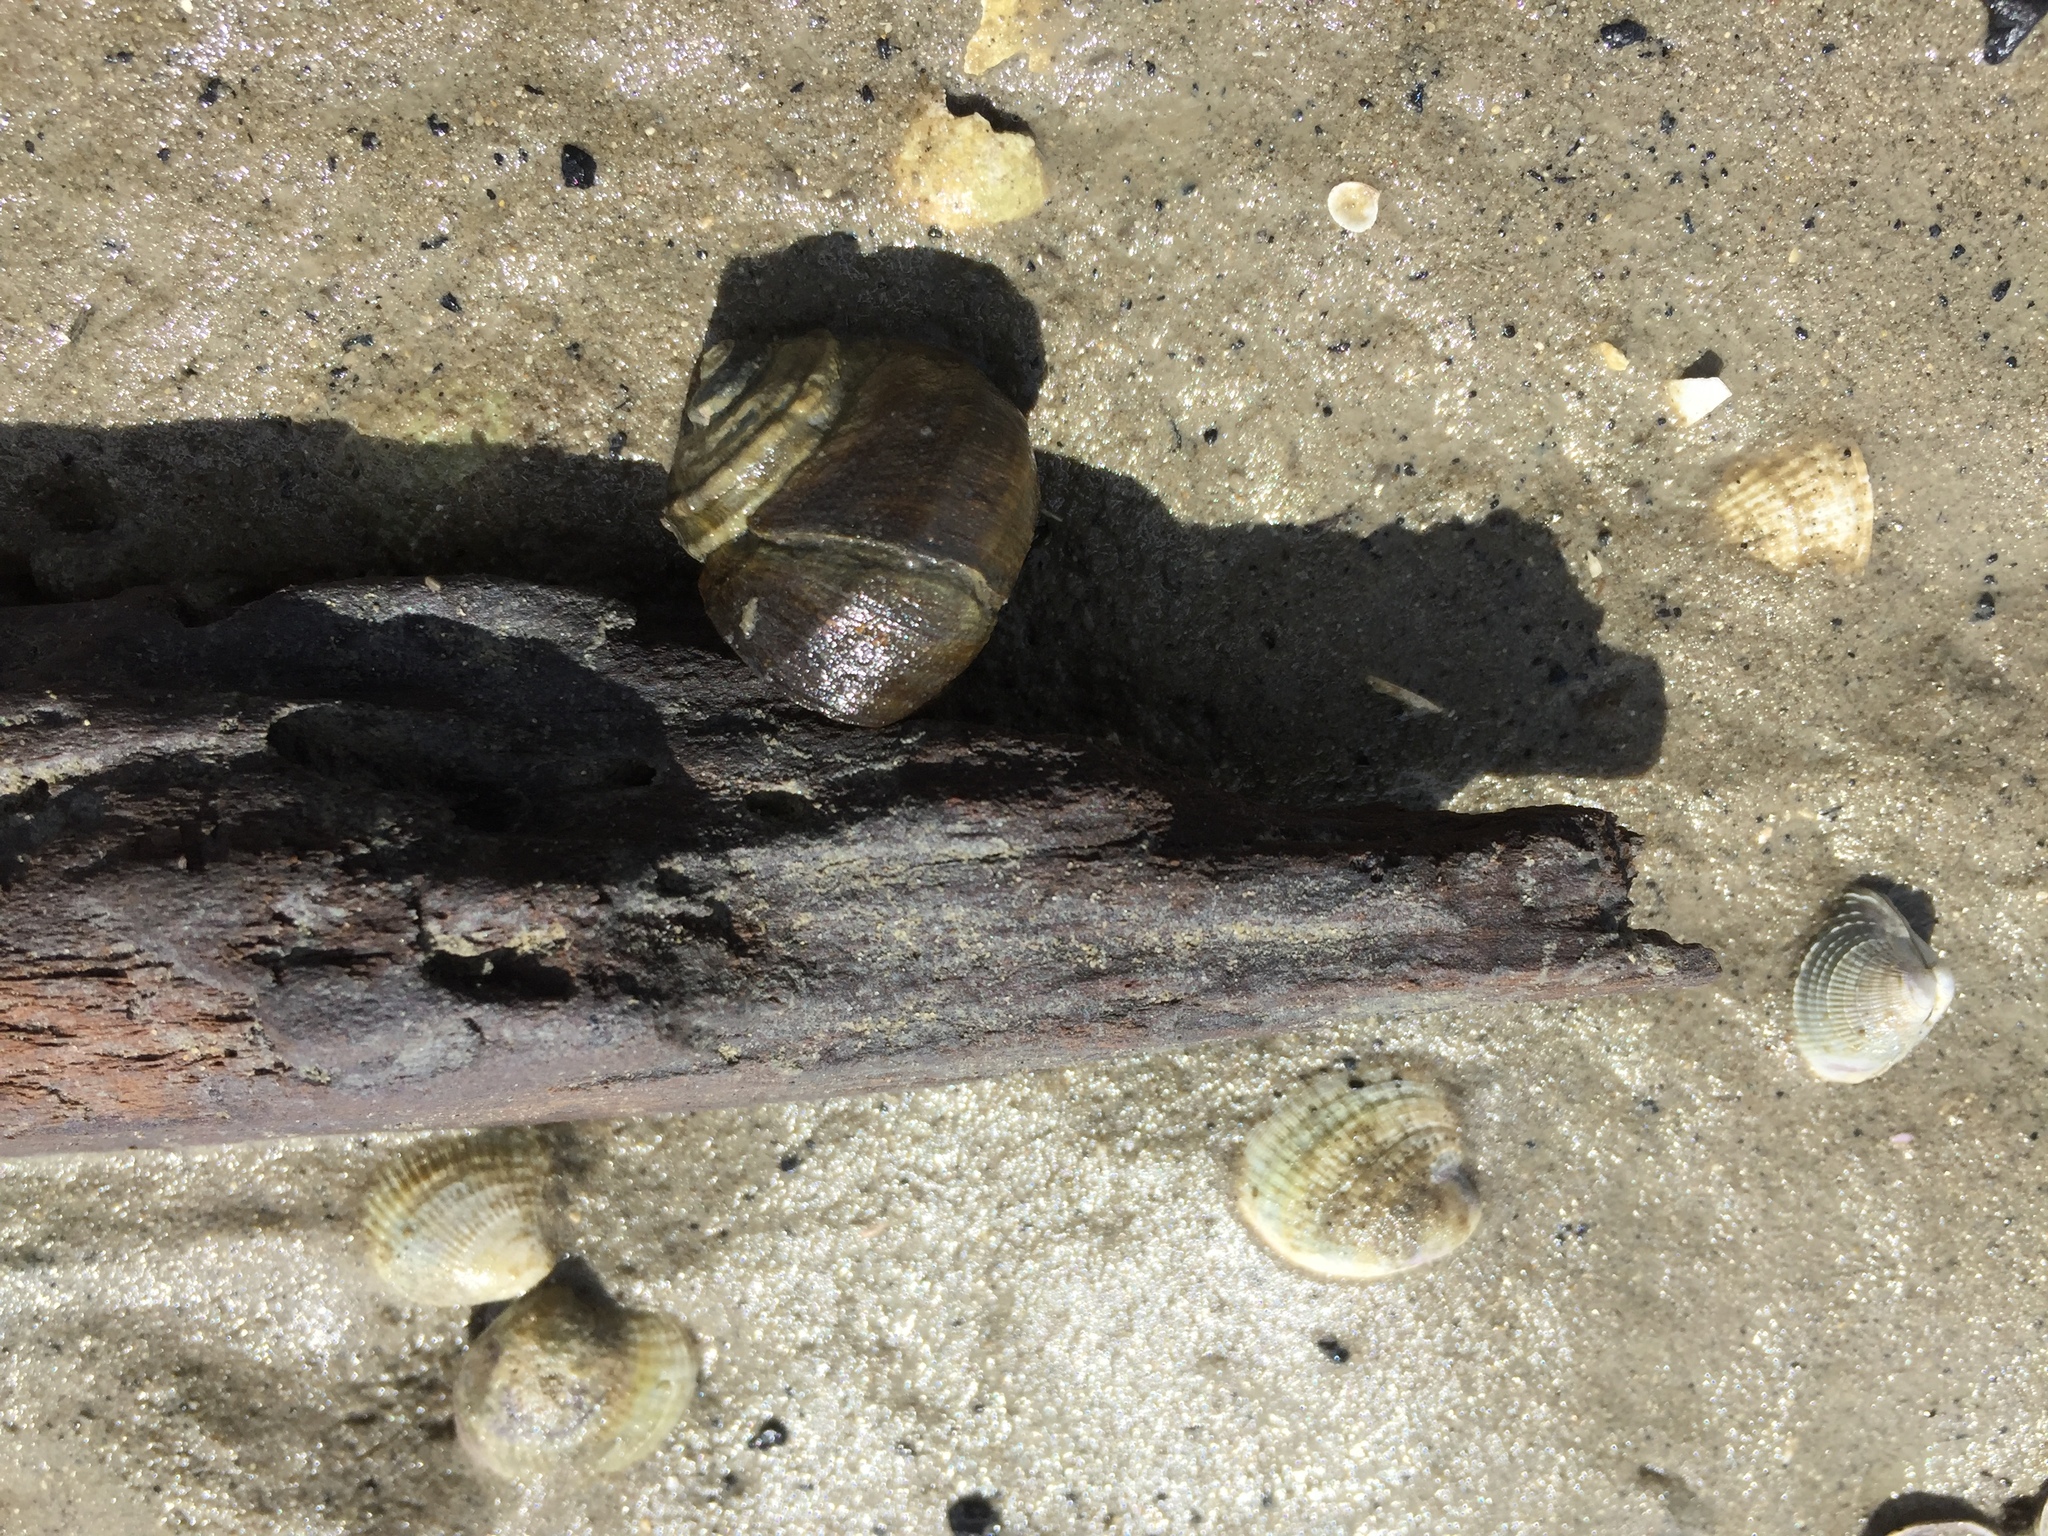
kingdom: Animalia
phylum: Mollusca
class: Gastropoda
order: Trochida
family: Turbinidae
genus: Lunella
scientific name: Lunella smaragda
